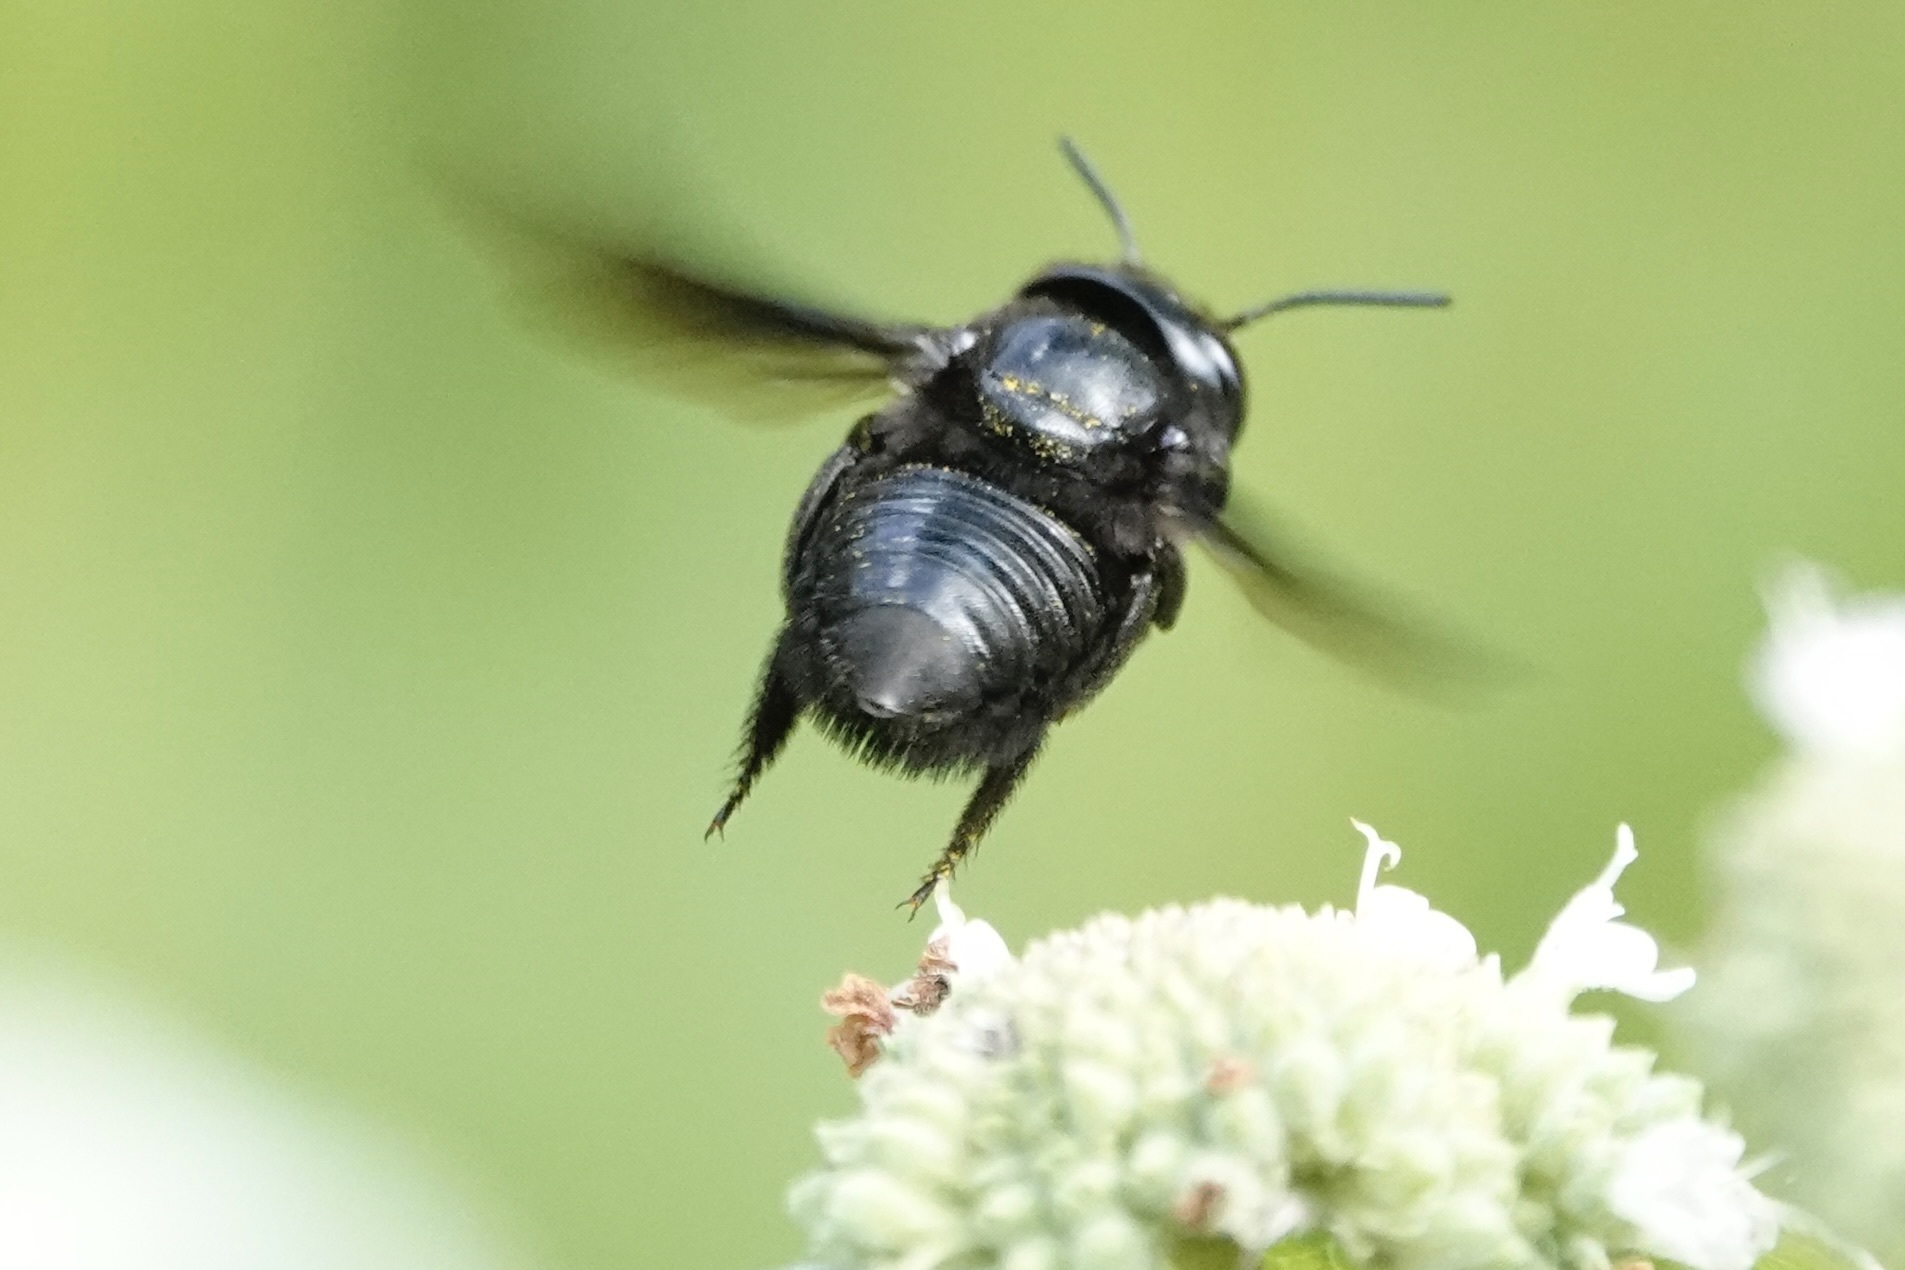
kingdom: Animalia
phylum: Arthropoda
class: Insecta
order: Hymenoptera
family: Megachilidae
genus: Megachile
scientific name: Megachile xylocopoides
